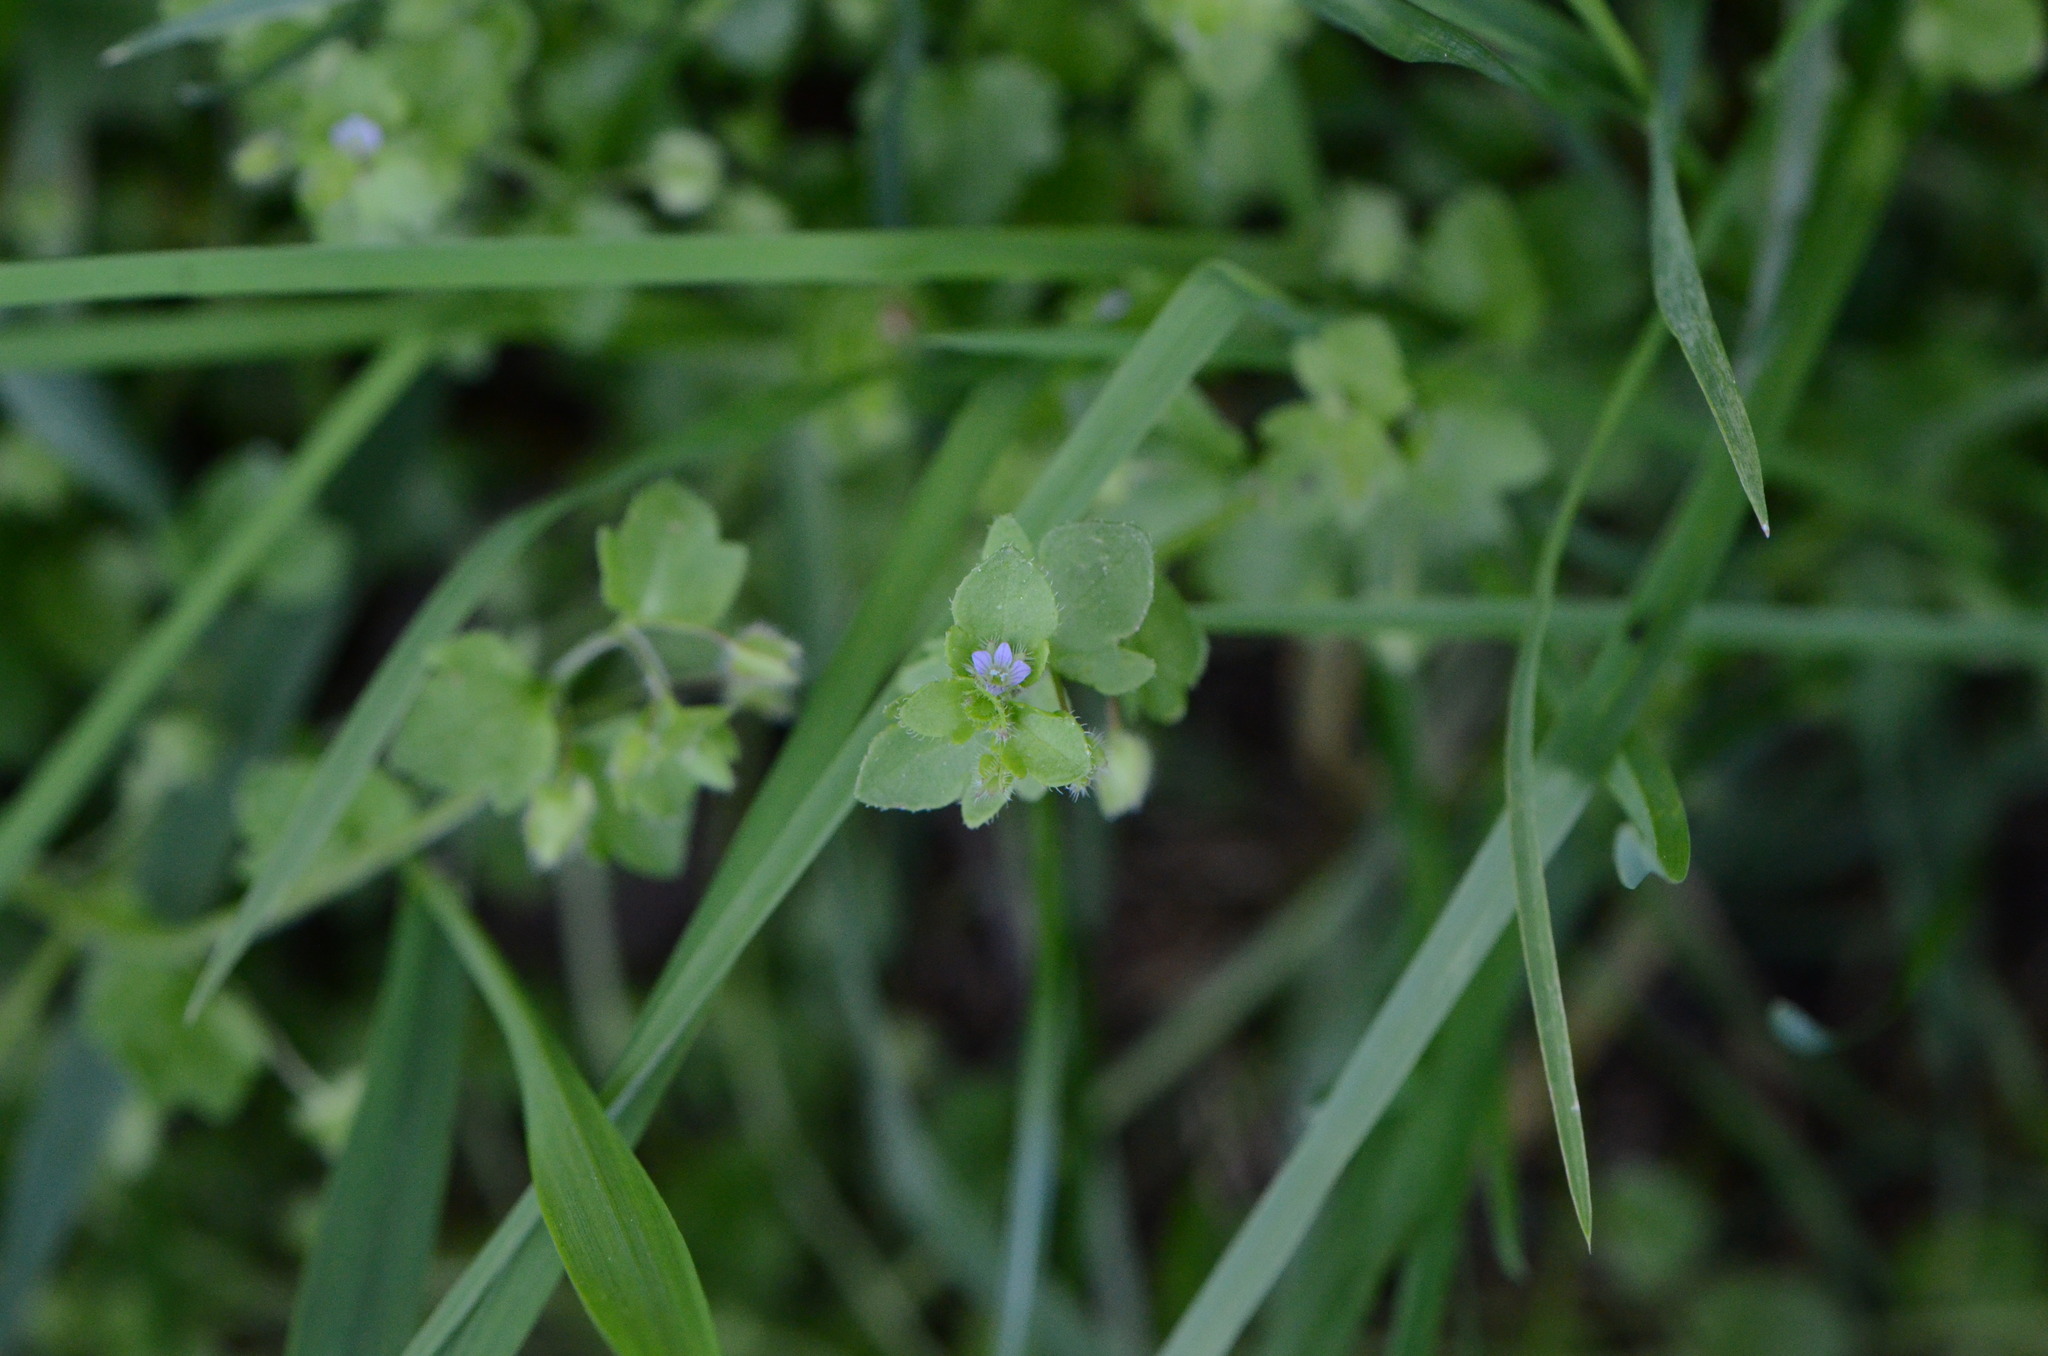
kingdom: Plantae
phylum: Tracheophyta
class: Magnoliopsida
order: Lamiales
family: Plantaginaceae
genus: Veronica
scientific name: Veronica sublobata
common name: False ivy-leaved speedwell
